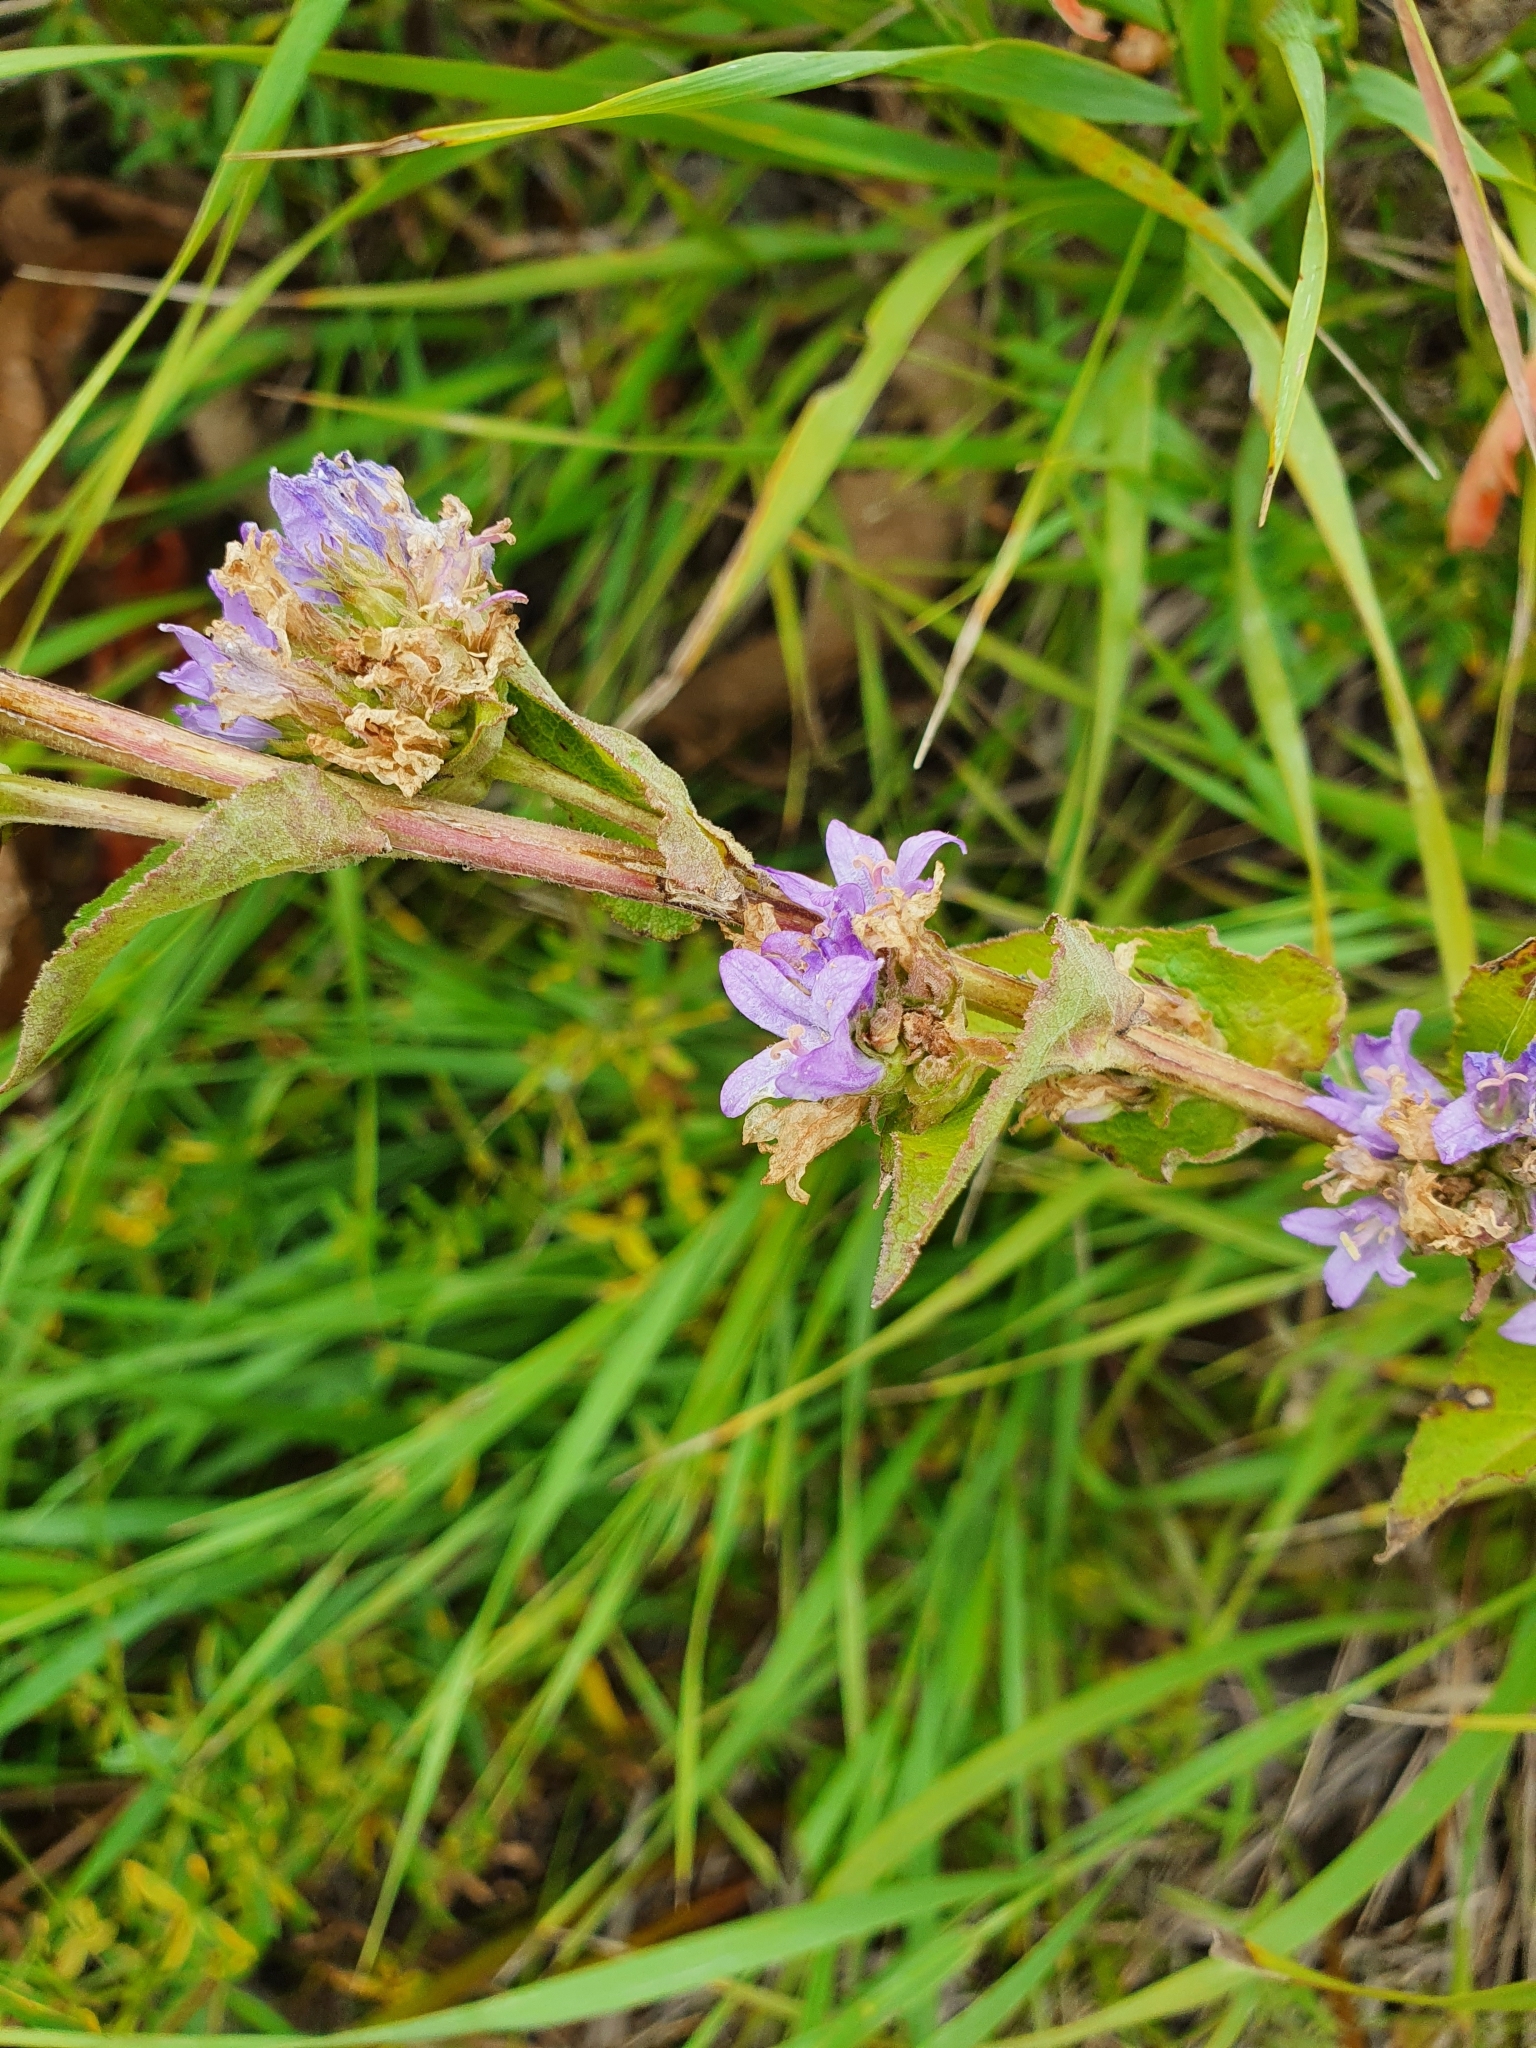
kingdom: Plantae
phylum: Tracheophyta
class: Magnoliopsida
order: Asterales
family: Campanulaceae
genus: Campanula
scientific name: Campanula glomerata
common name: Clustered bellflower
